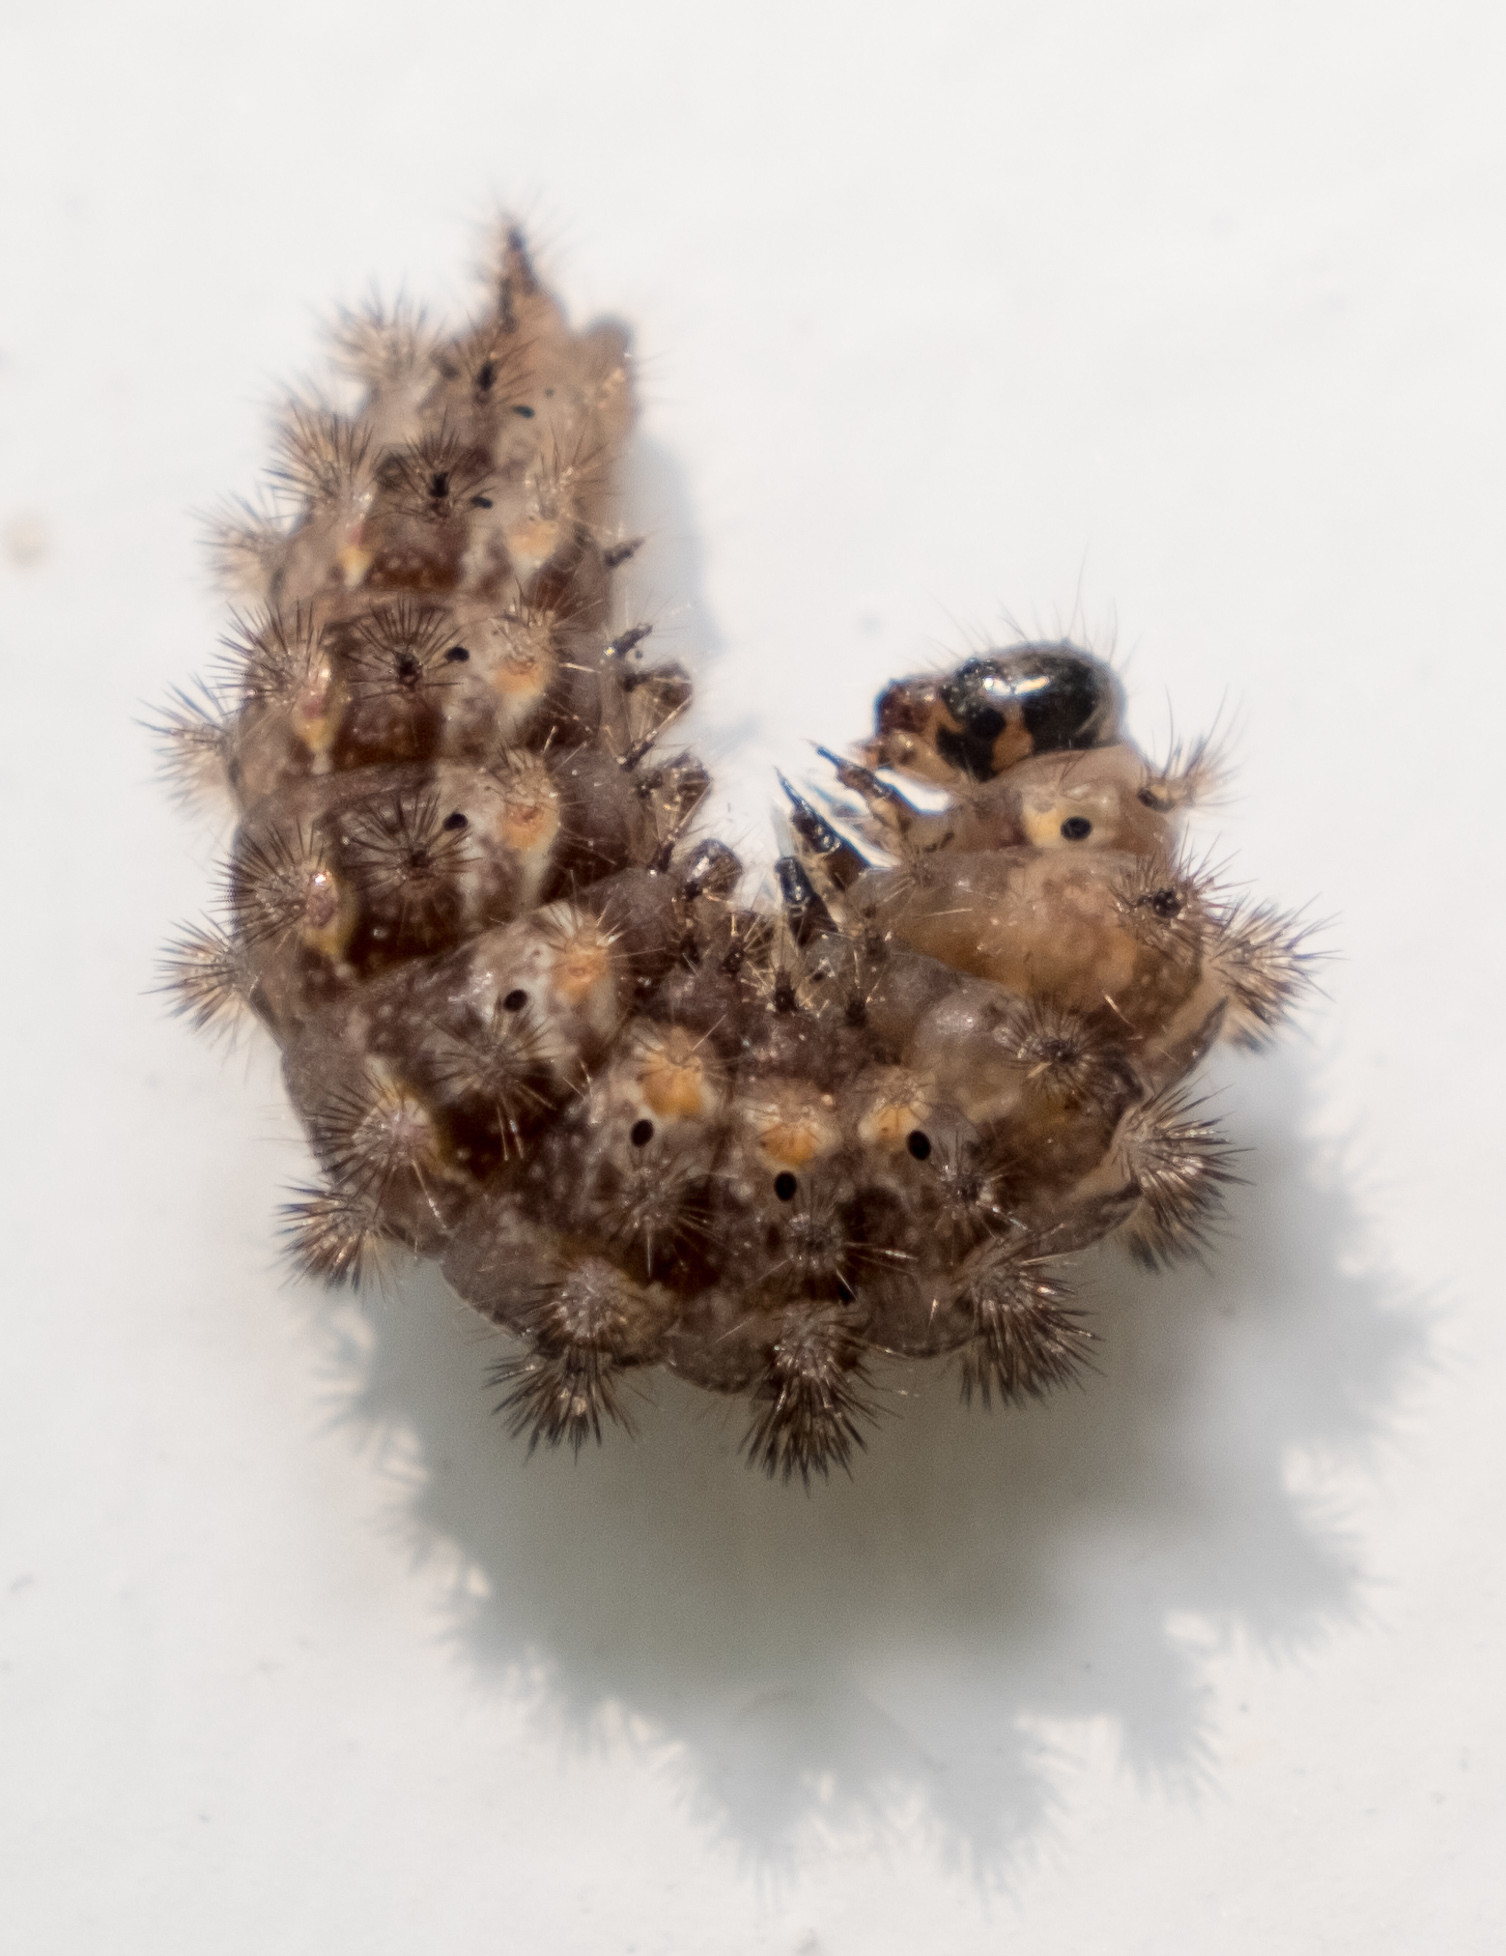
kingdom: Animalia
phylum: Arthropoda
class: Insecta
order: Lepidoptera
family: Nymphalidae
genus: Phyciodes
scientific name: Phyciodes tharos
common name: Pearl crescent
